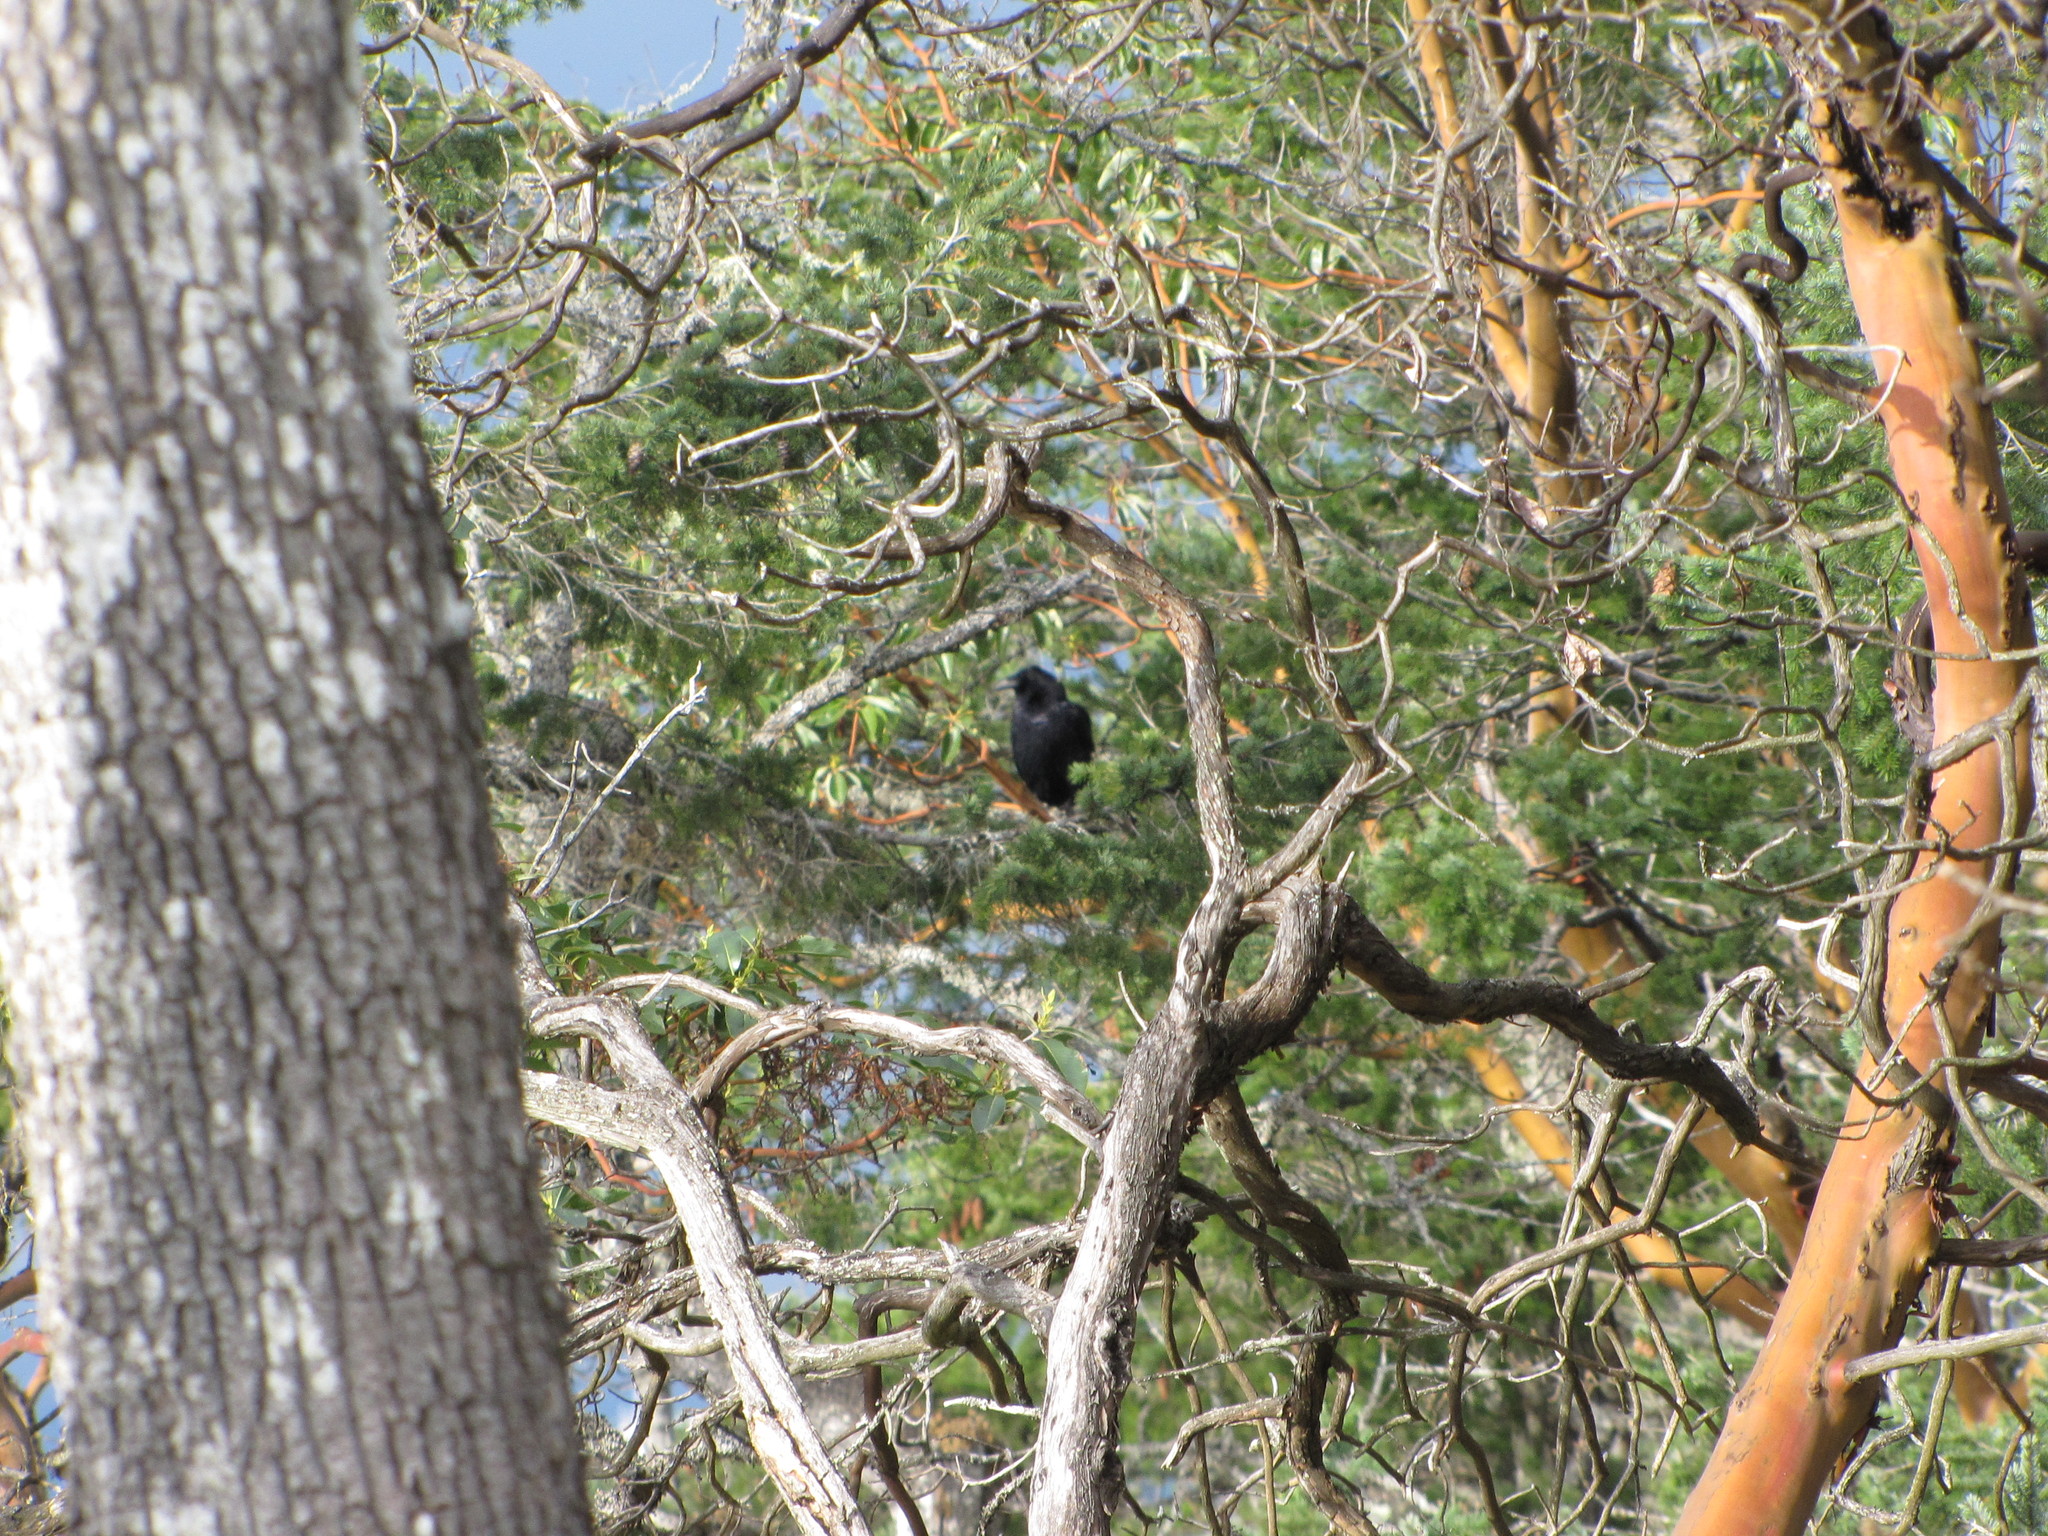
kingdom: Animalia
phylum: Chordata
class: Aves
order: Passeriformes
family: Corvidae
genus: Corvus
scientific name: Corvus corax
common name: Common raven
